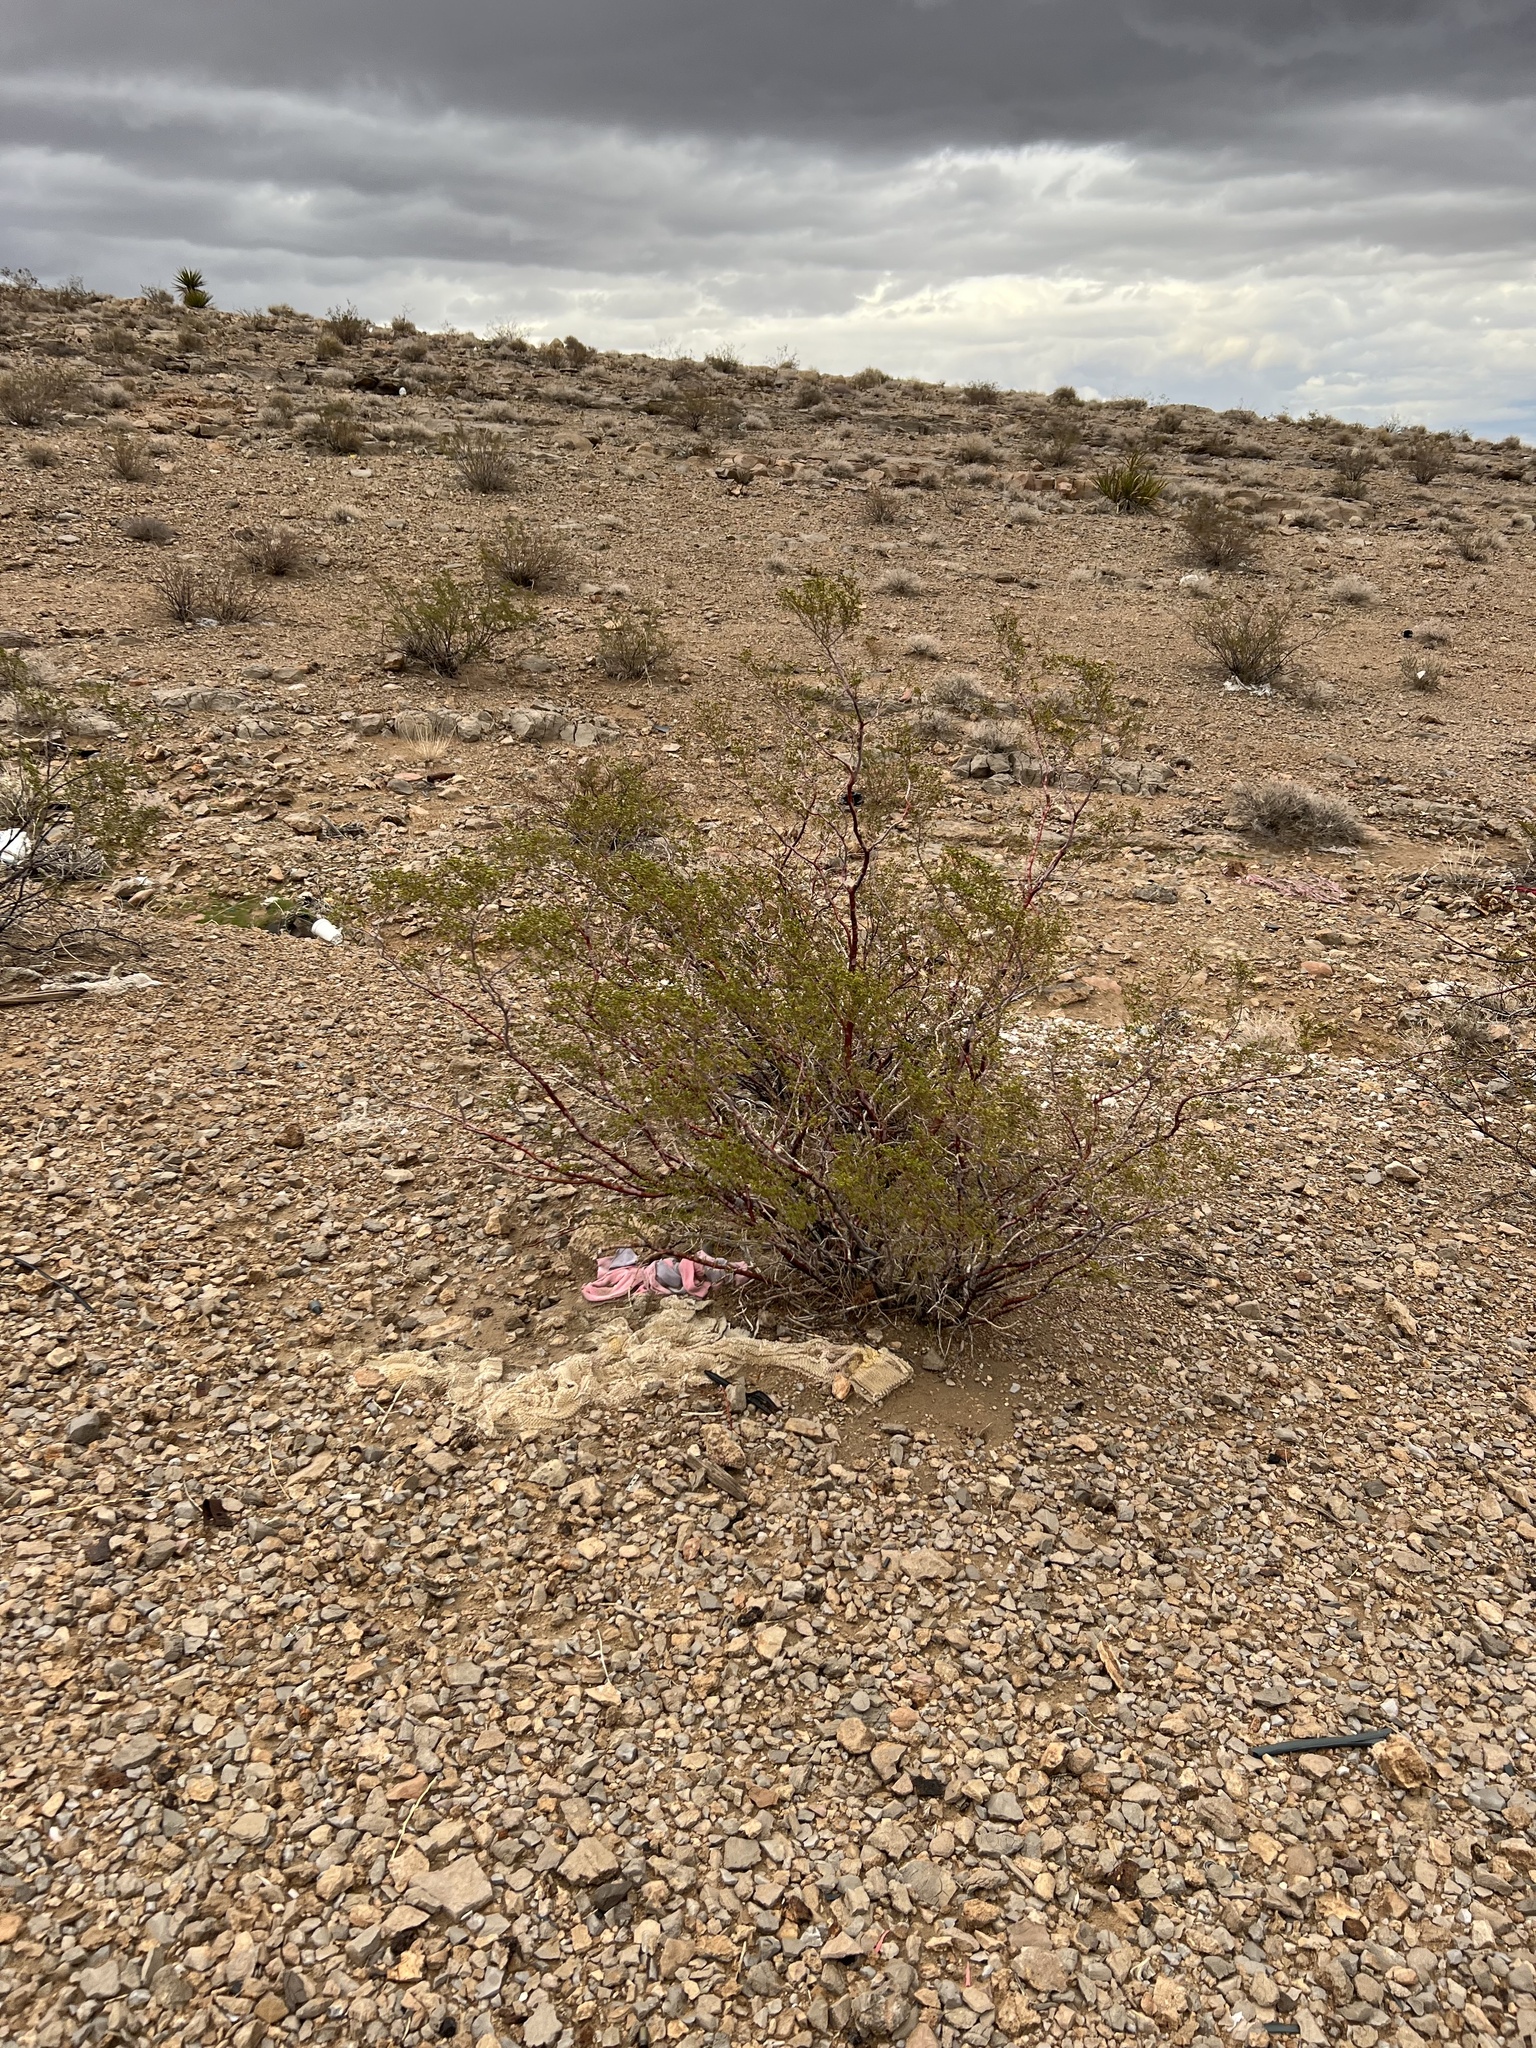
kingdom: Plantae
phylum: Tracheophyta
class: Magnoliopsida
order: Zygophyllales
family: Zygophyllaceae
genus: Larrea
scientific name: Larrea tridentata
